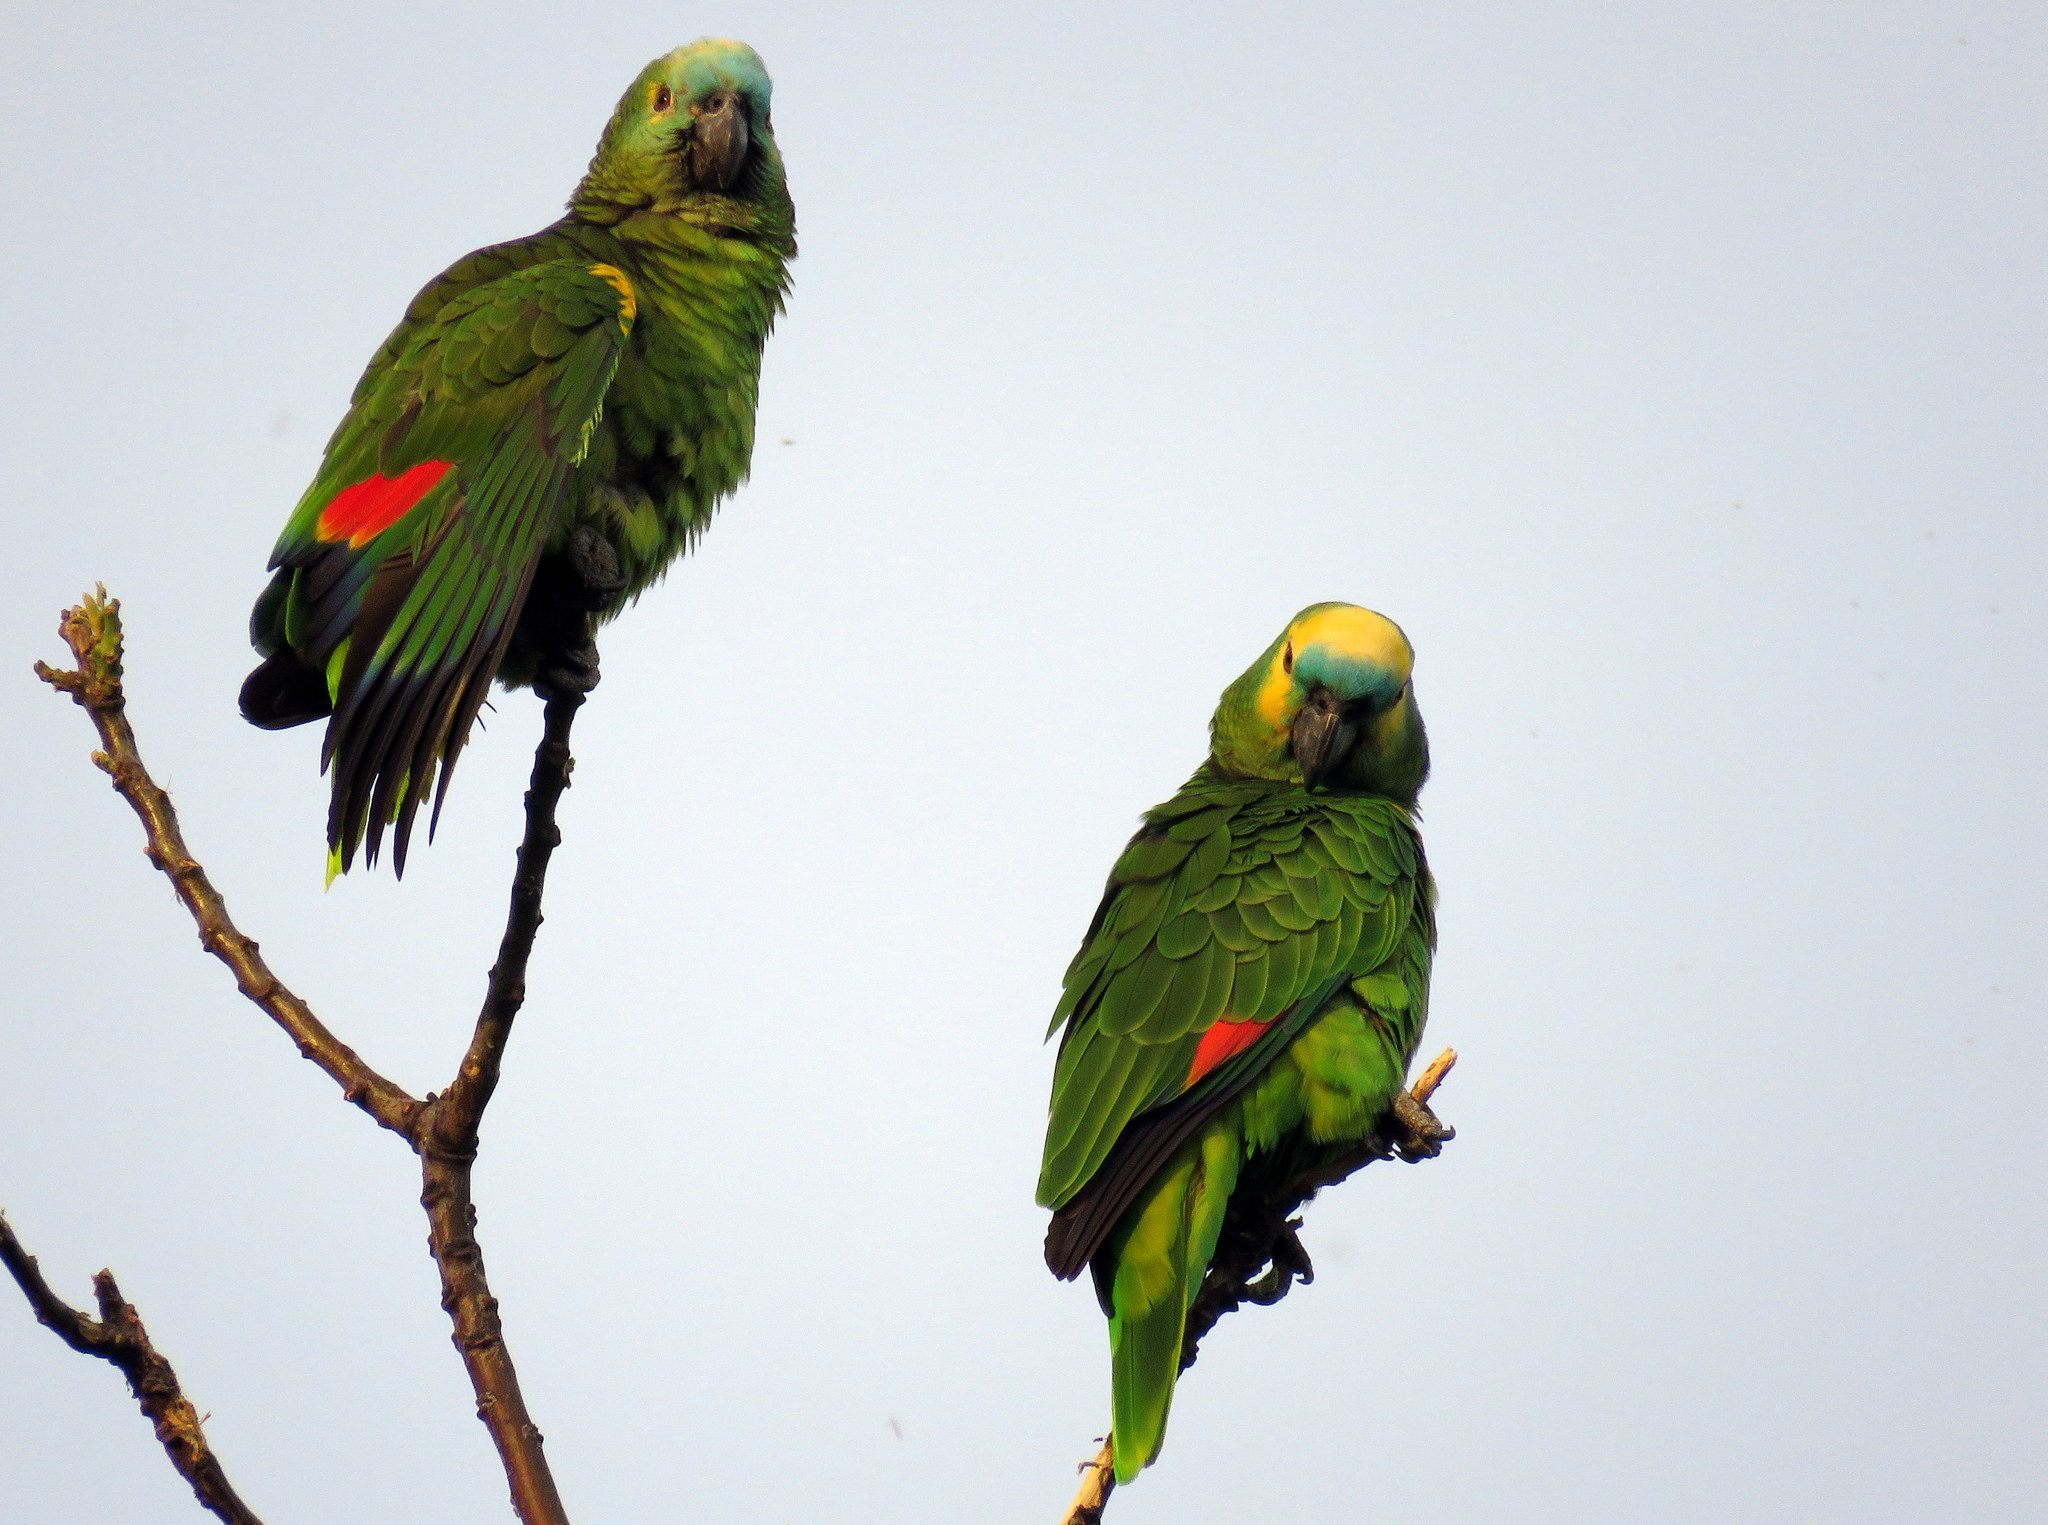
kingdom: Animalia
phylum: Chordata
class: Aves
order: Psittaciformes
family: Psittacidae
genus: Amazona
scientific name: Amazona aestiva
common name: Turquoise-fronted amazon
